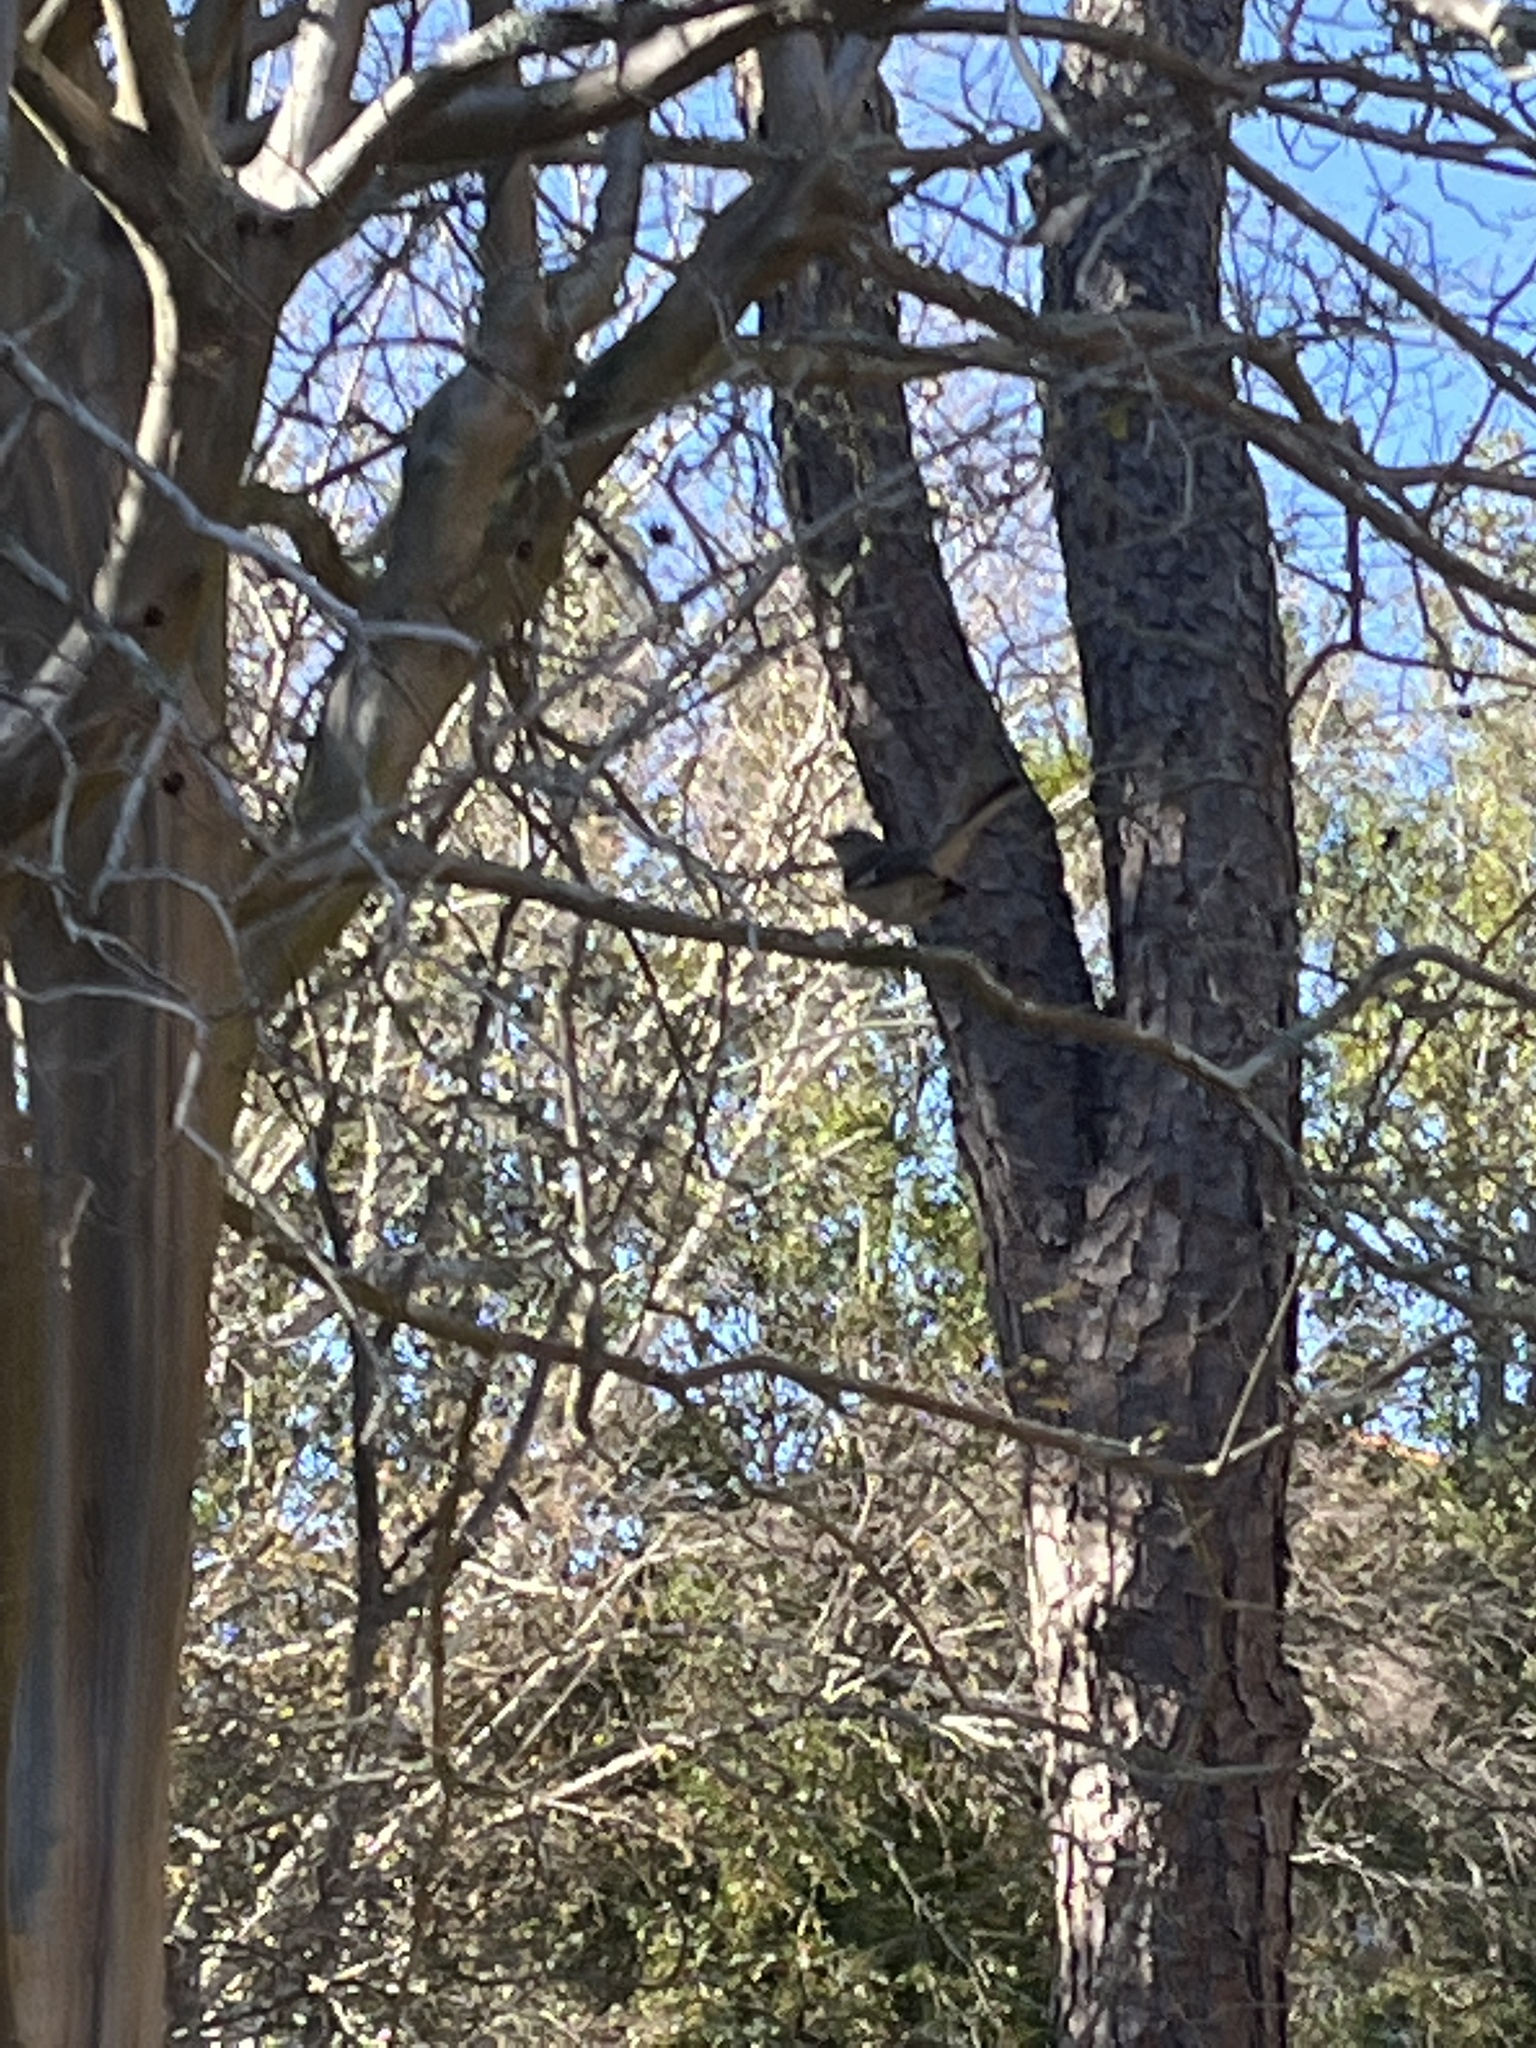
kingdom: Animalia
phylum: Chordata
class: Aves
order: Passeriformes
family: Mimidae
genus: Mimus
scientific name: Mimus polyglottos
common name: Northern mockingbird
